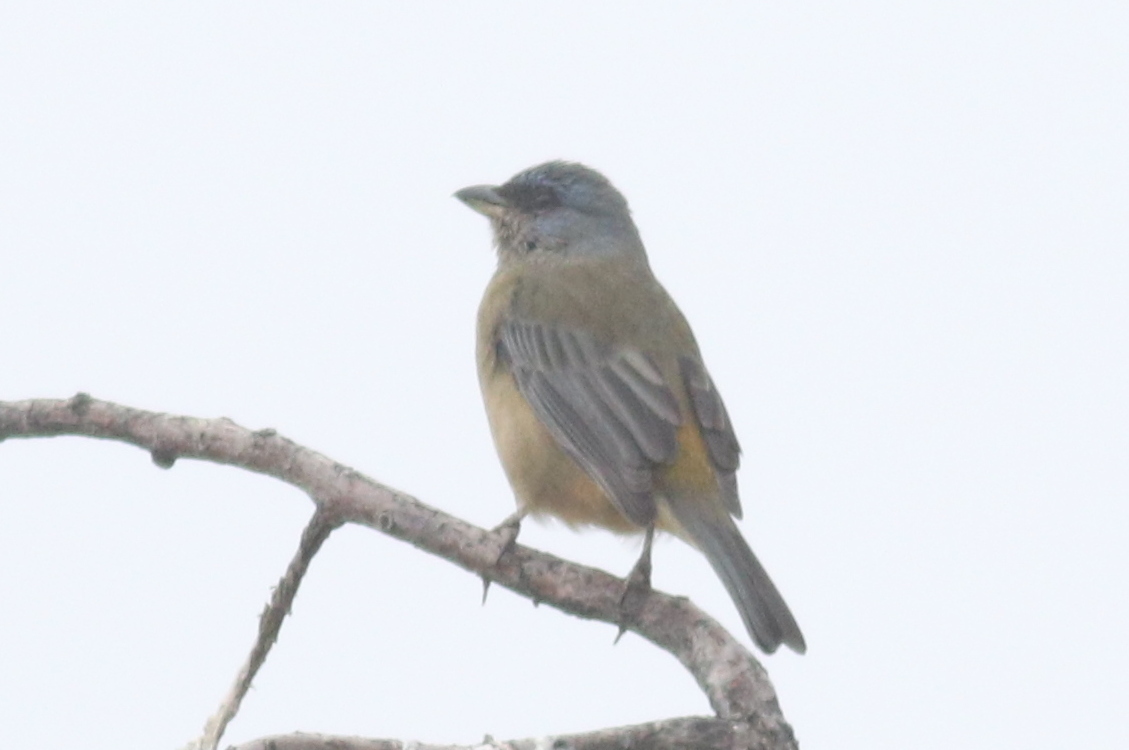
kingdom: Animalia
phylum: Chordata
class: Aves
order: Passeriformes
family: Thraupidae
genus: Rauenia
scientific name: Rauenia bonariensis
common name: Blue-and-yellow tanager
